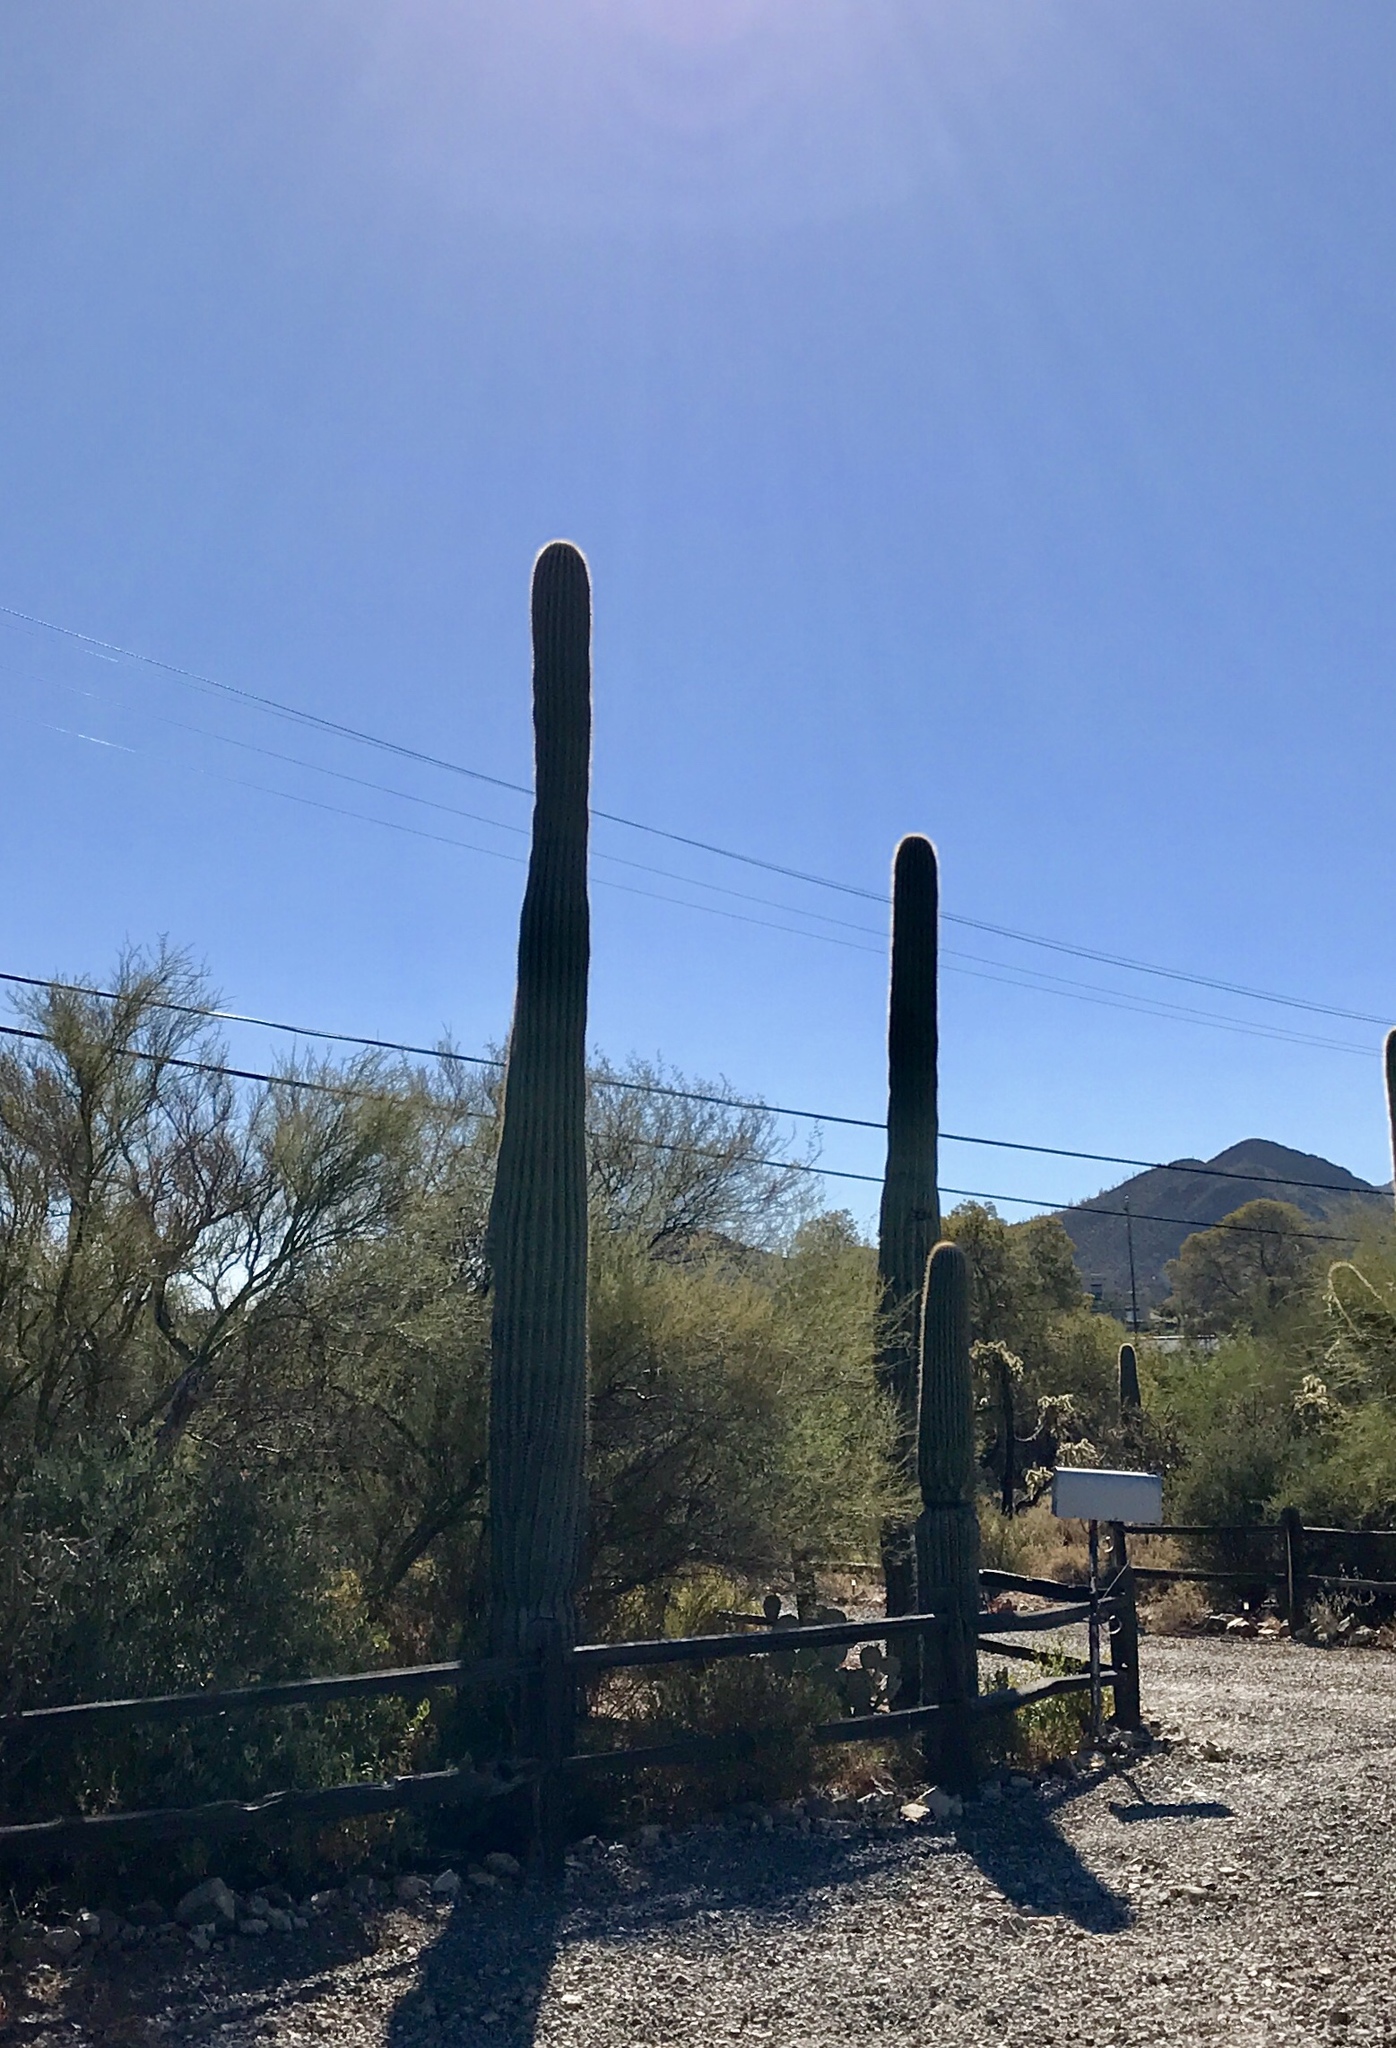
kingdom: Plantae
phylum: Tracheophyta
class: Magnoliopsida
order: Caryophyllales
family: Cactaceae
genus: Carnegiea
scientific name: Carnegiea gigantea
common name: Saguaro
